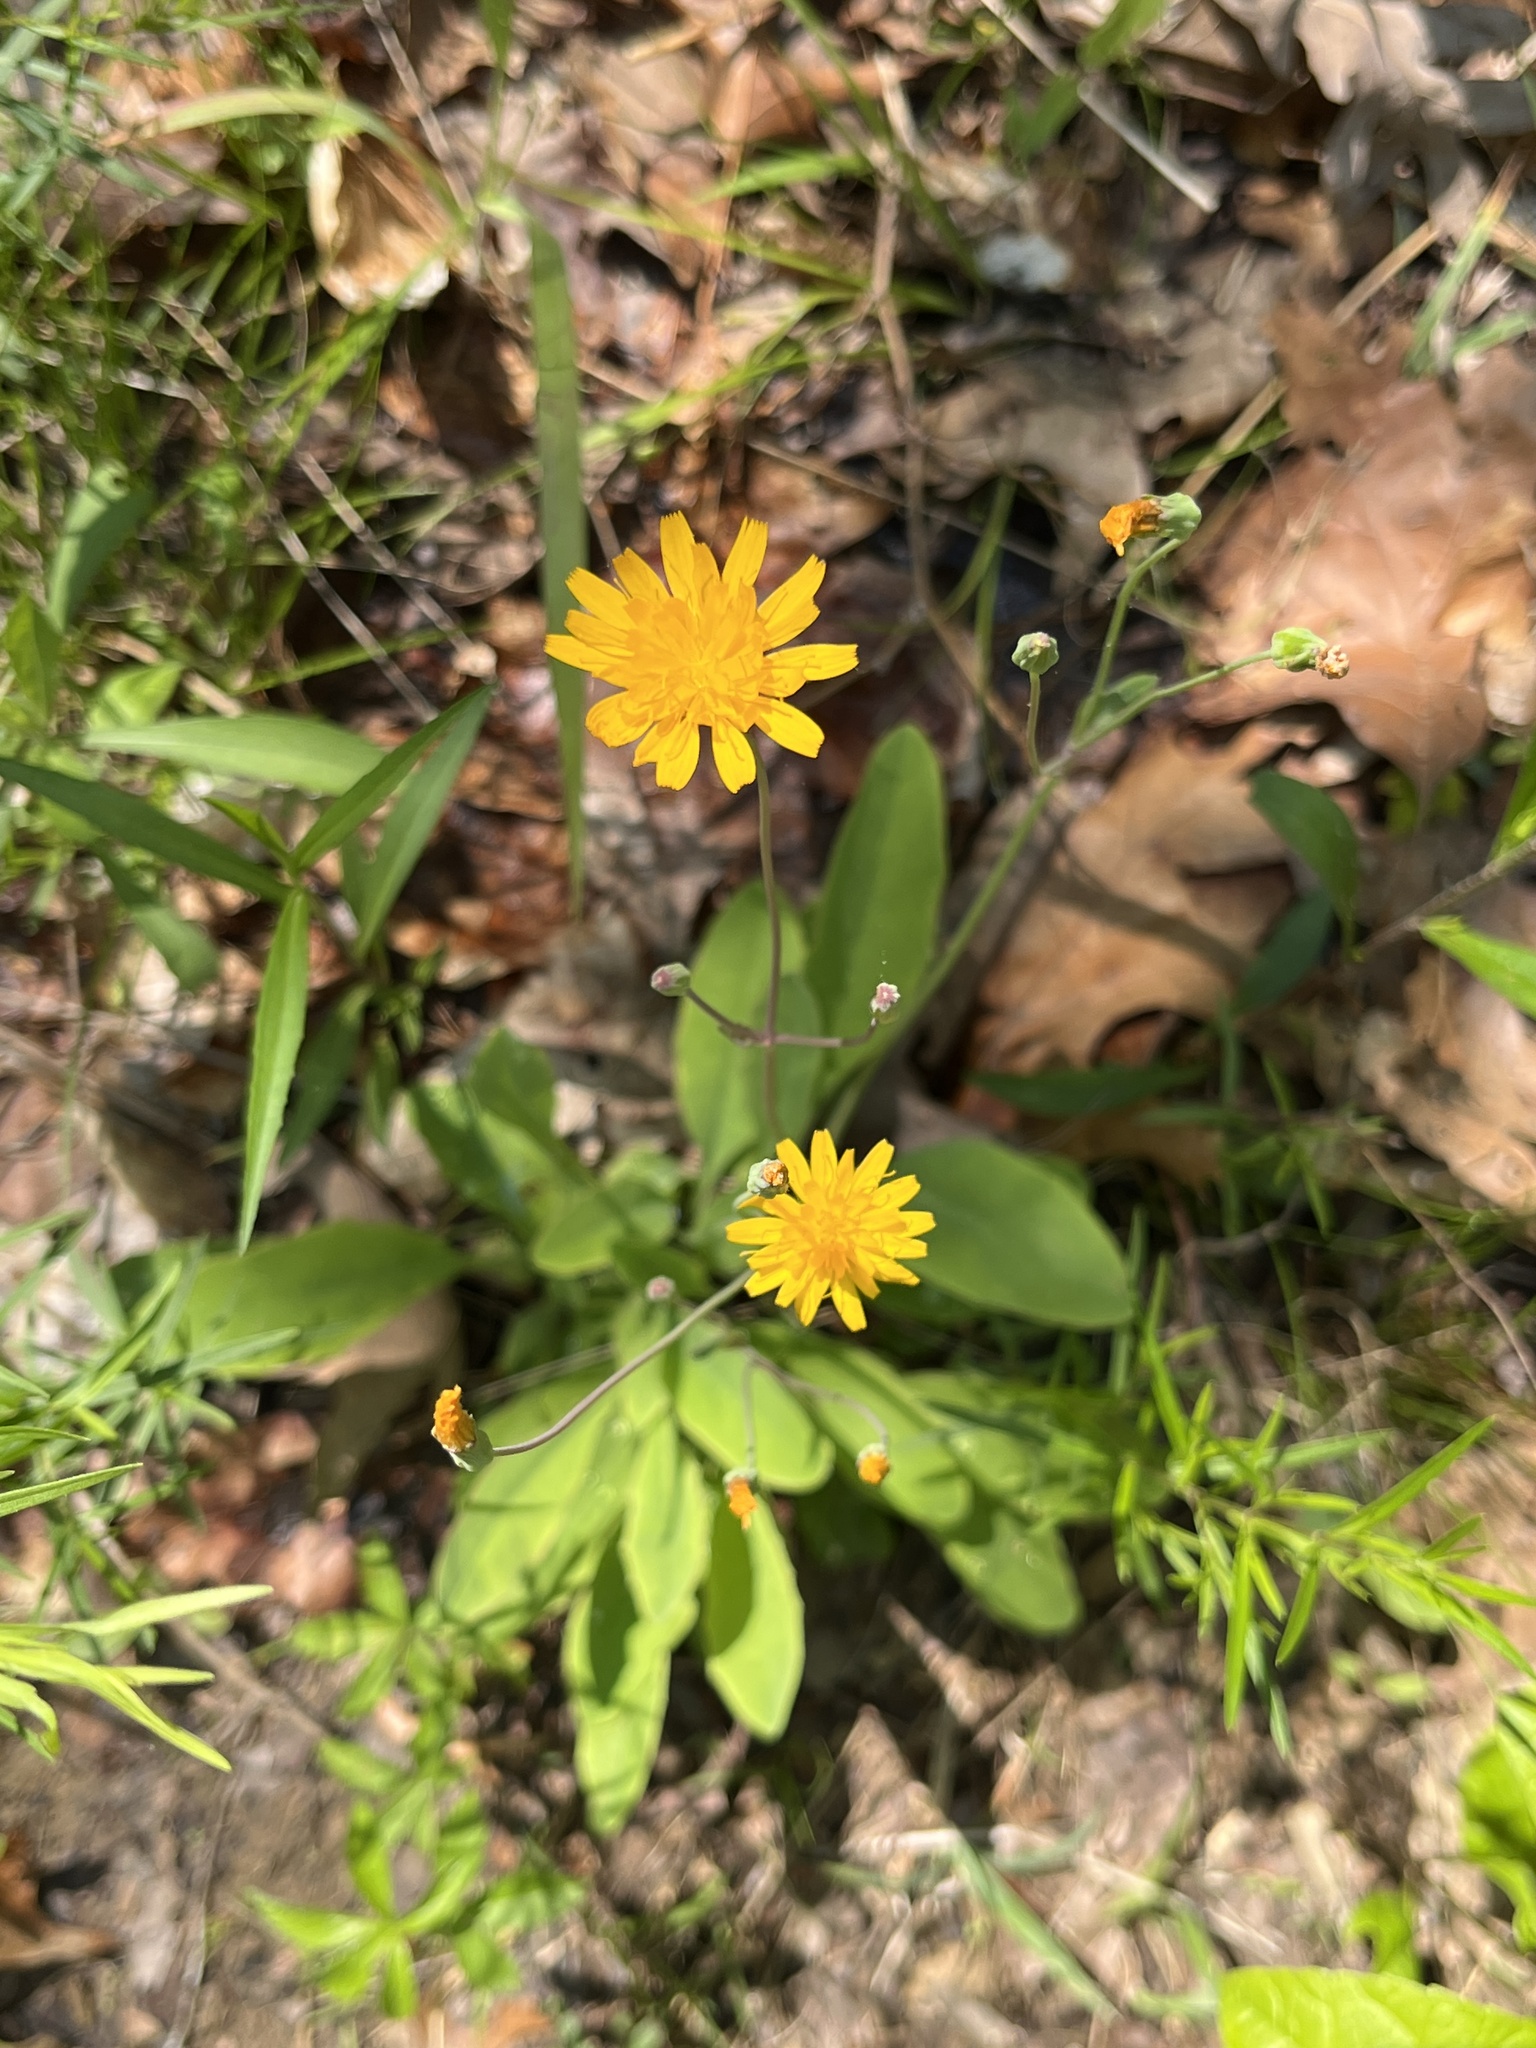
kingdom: Plantae
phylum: Tracheophyta
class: Magnoliopsida
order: Asterales
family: Asteraceae
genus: Krigia
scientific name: Krigia biflora
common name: Orange dwarf-dandelion
